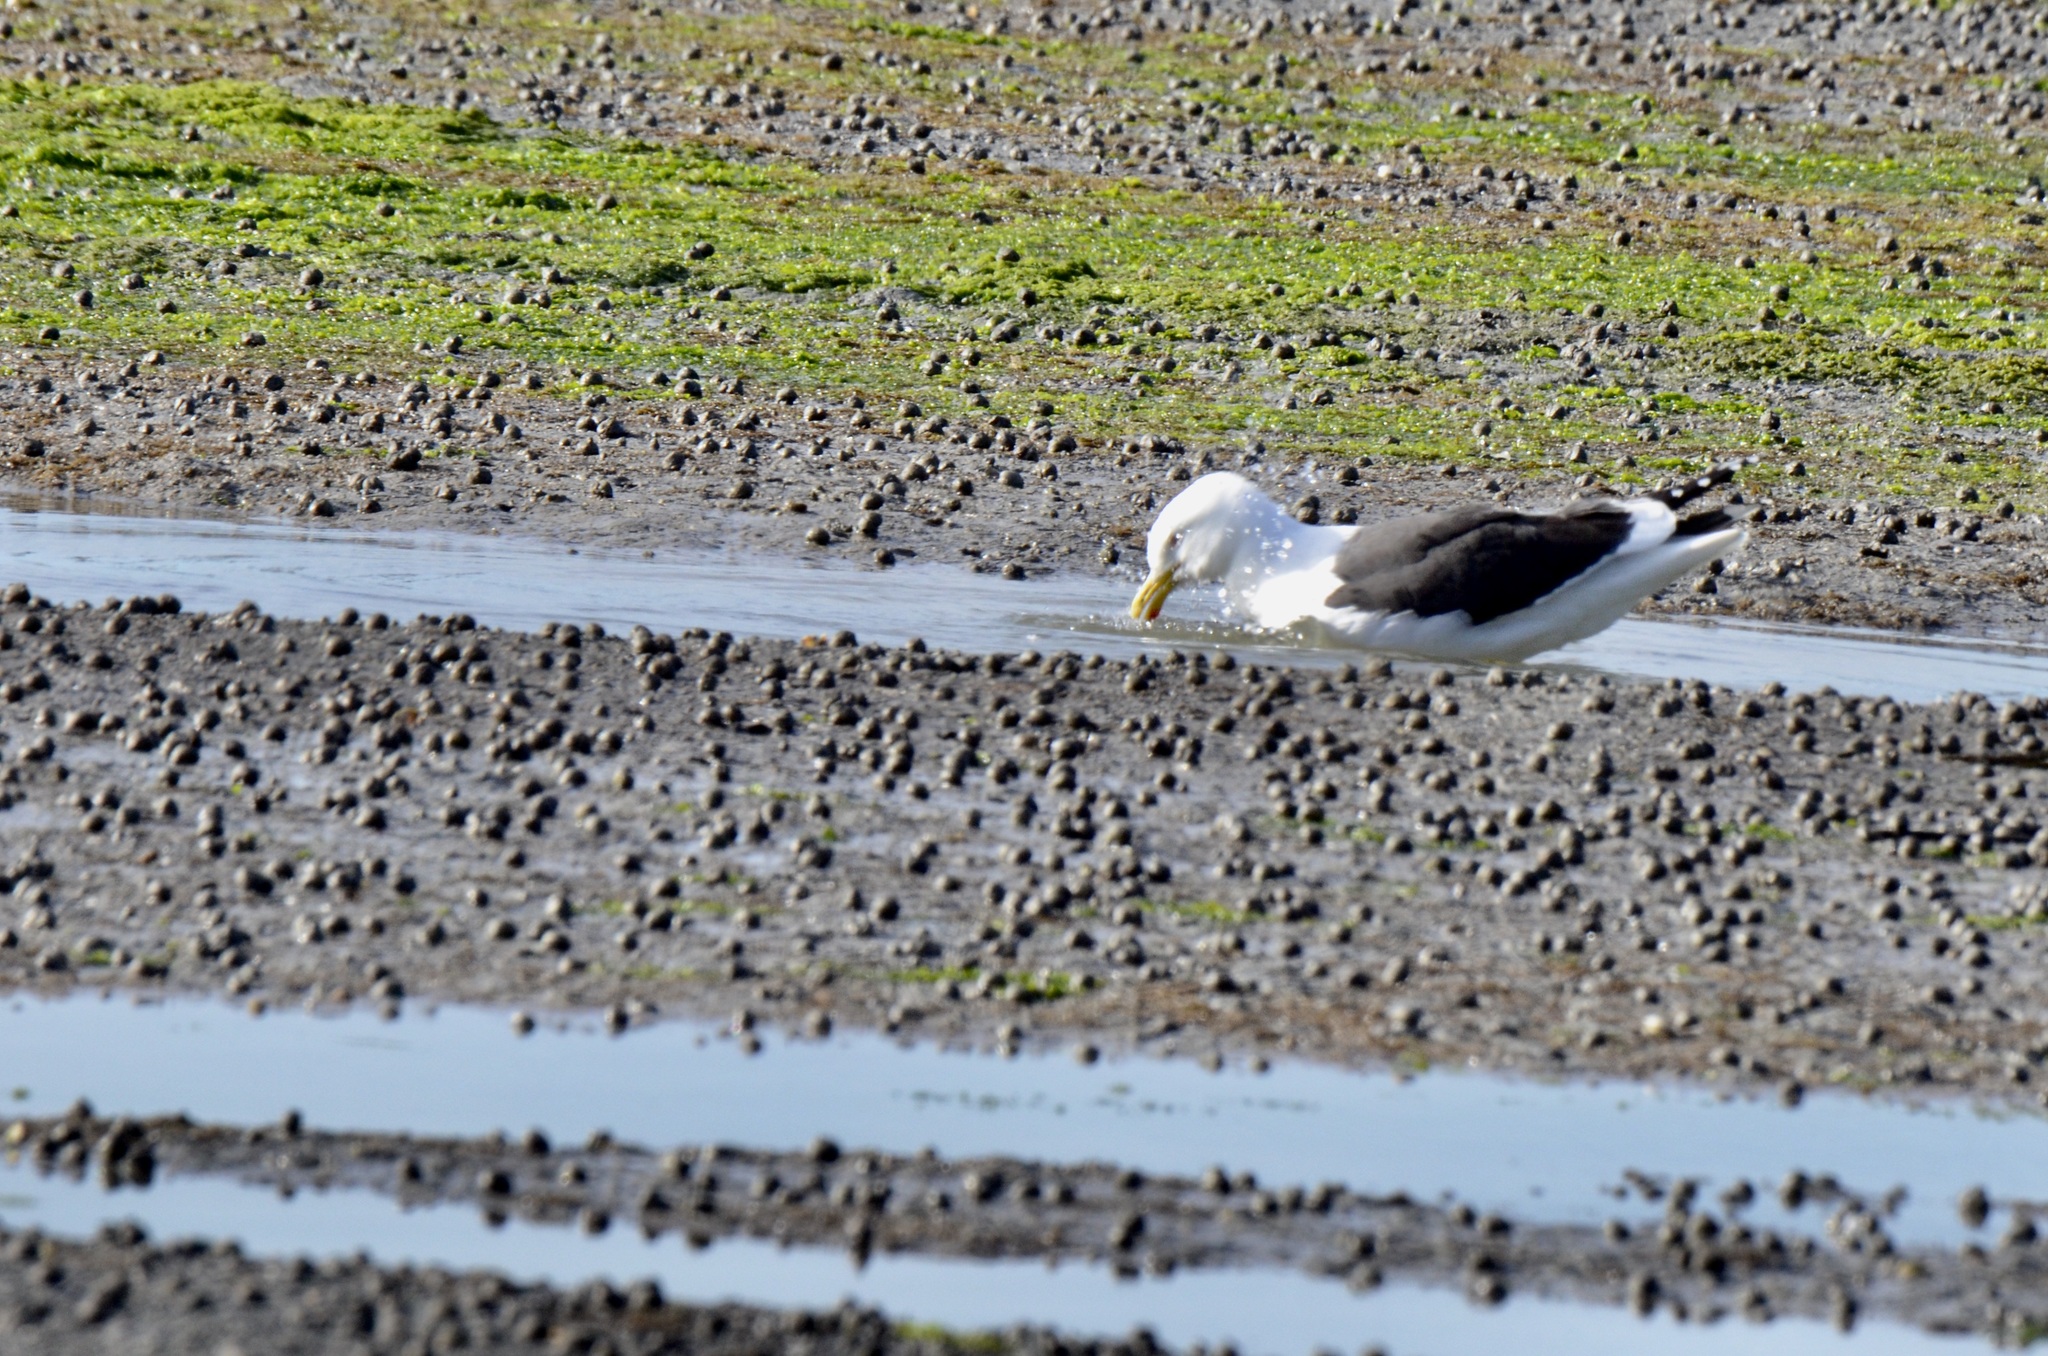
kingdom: Animalia
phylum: Chordata
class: Aves
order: Charadriiformes
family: Laridae
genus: Larus
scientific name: Larus dominicanus
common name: Kelp gull
